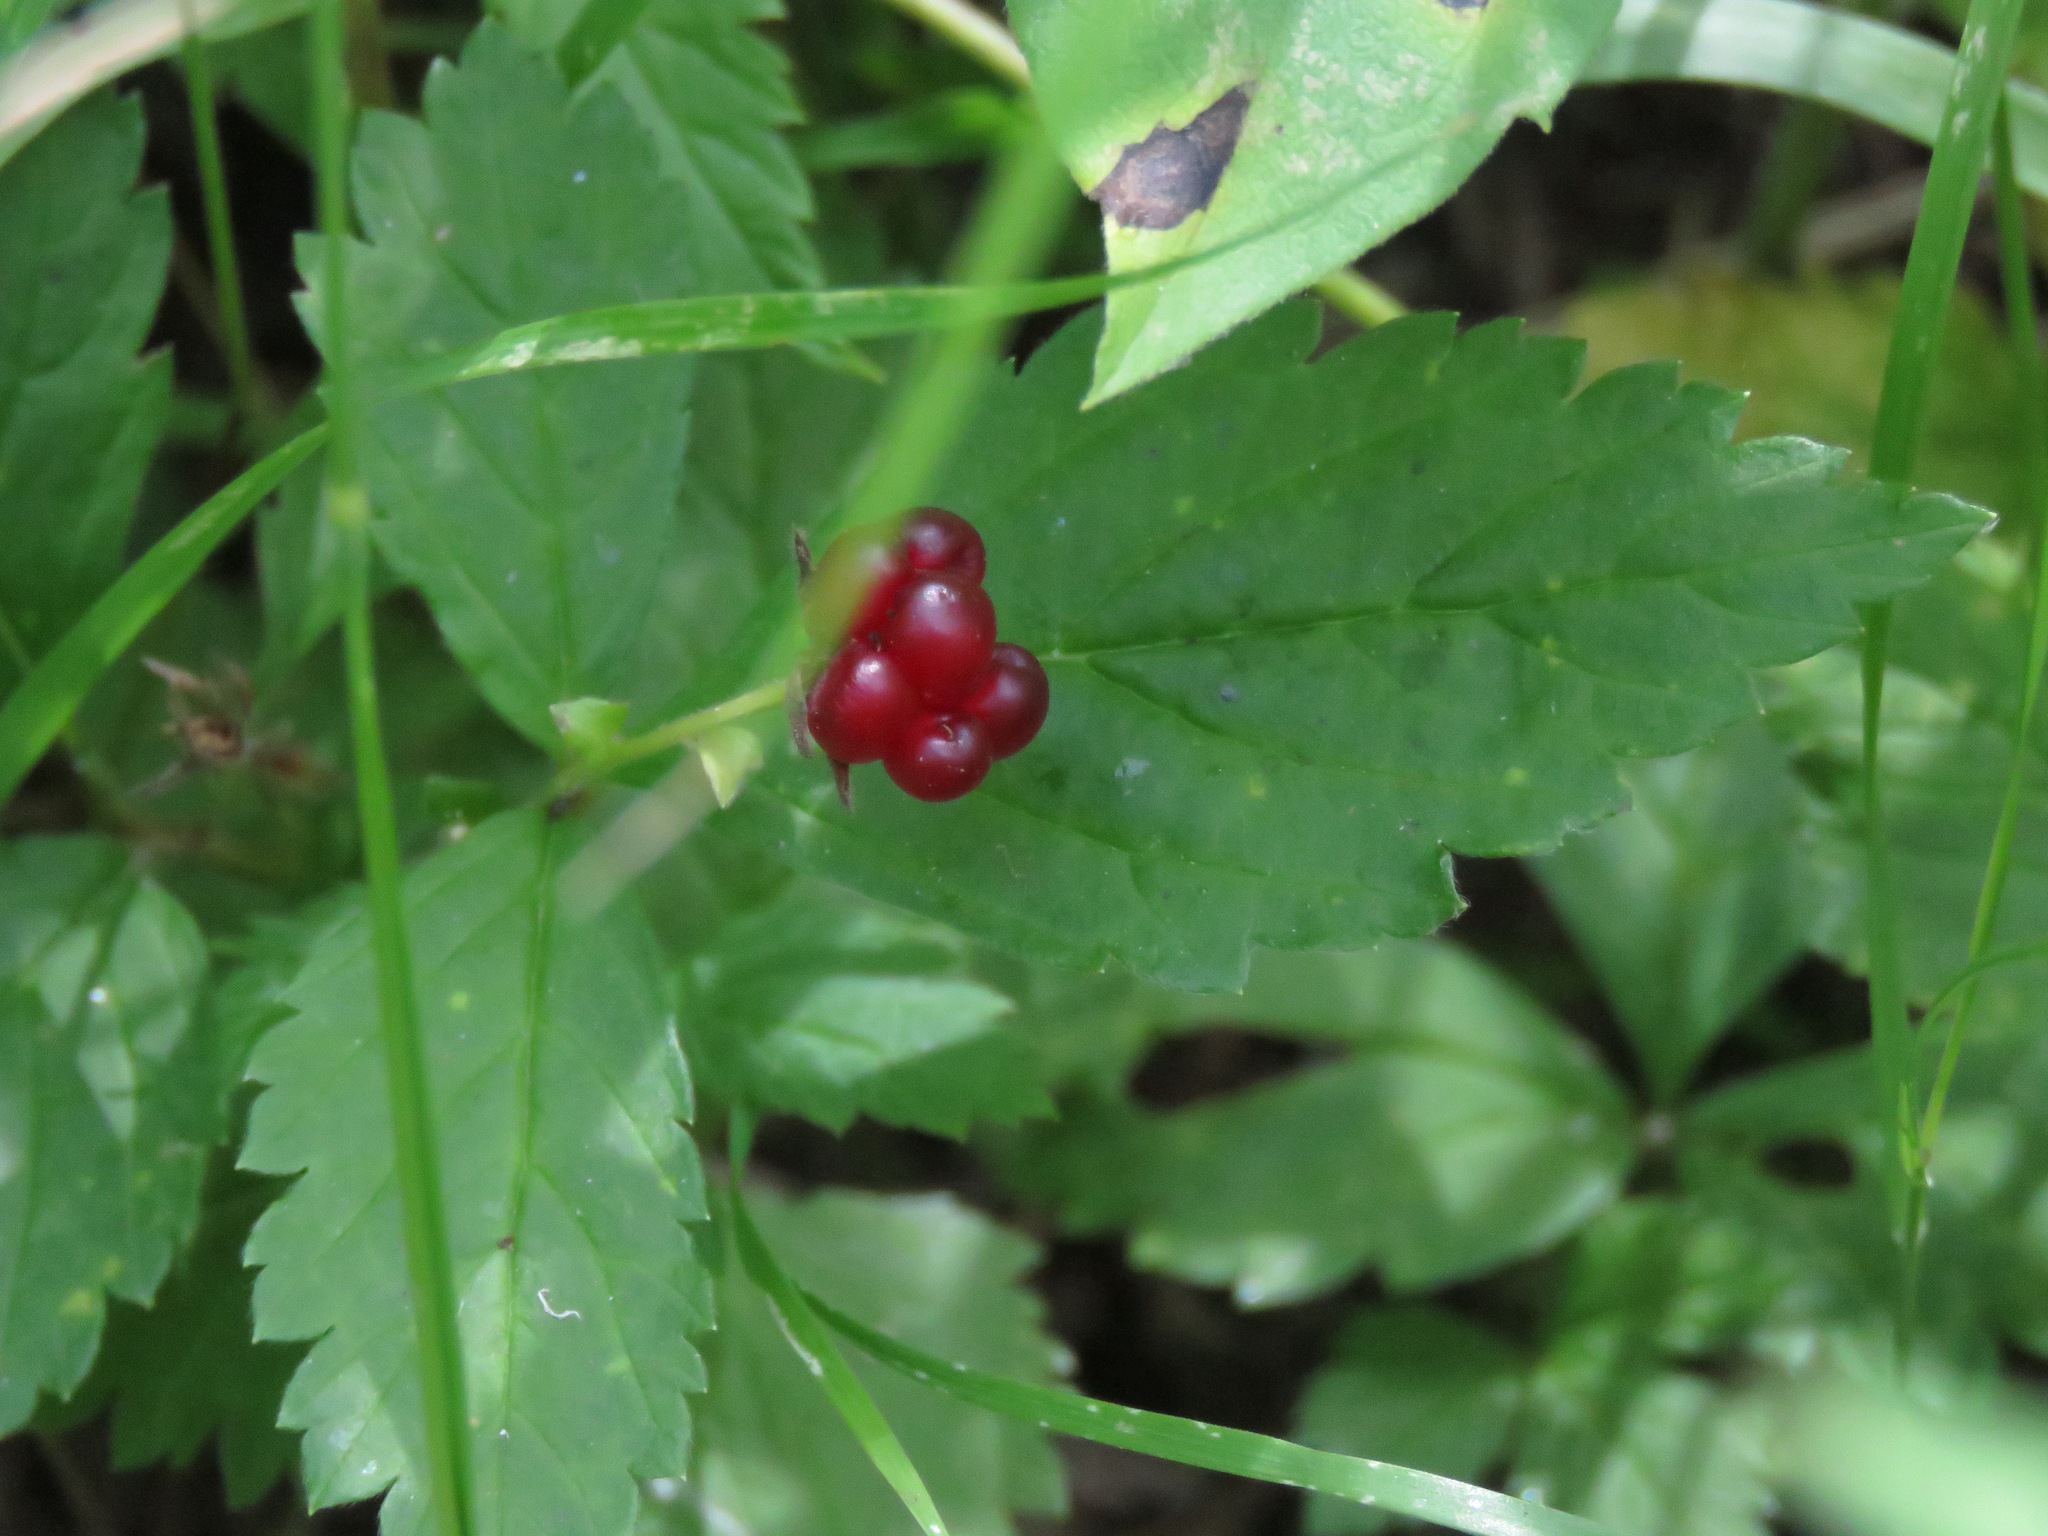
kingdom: Plantae
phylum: Tracheophyta
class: Magnoliopsida
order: Rosales
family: Rosaceae
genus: Rubus
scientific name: Rubus pubescens
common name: Dwarf raspberry
